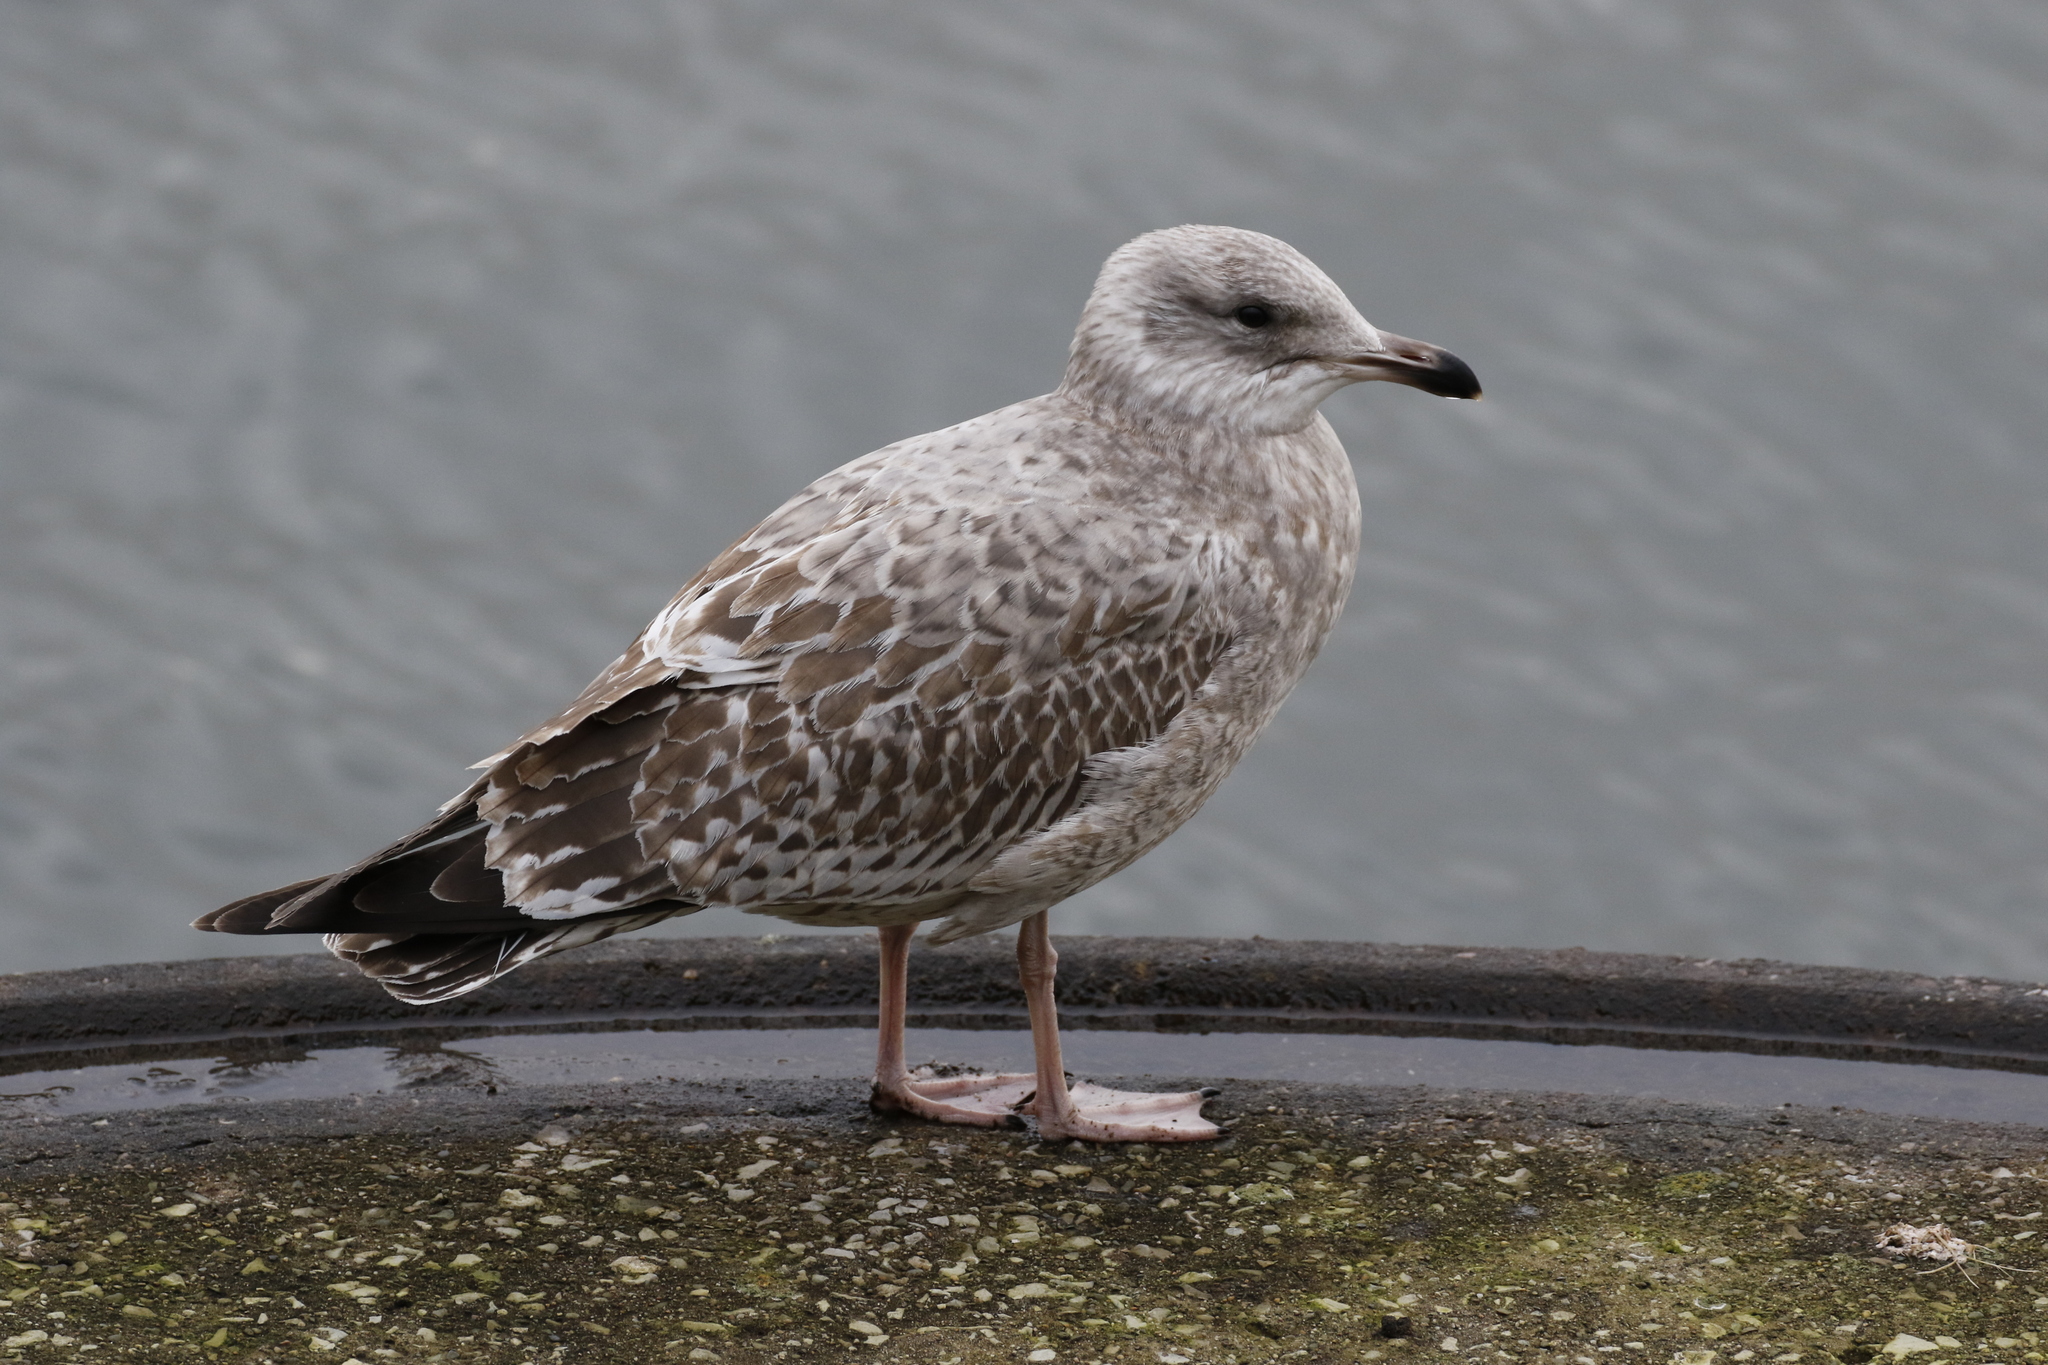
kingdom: Animalia
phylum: Chordata
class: Aves
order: Charadriiformes
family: Laridae
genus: Larus
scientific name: Larus argentatus
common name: Herring gull
